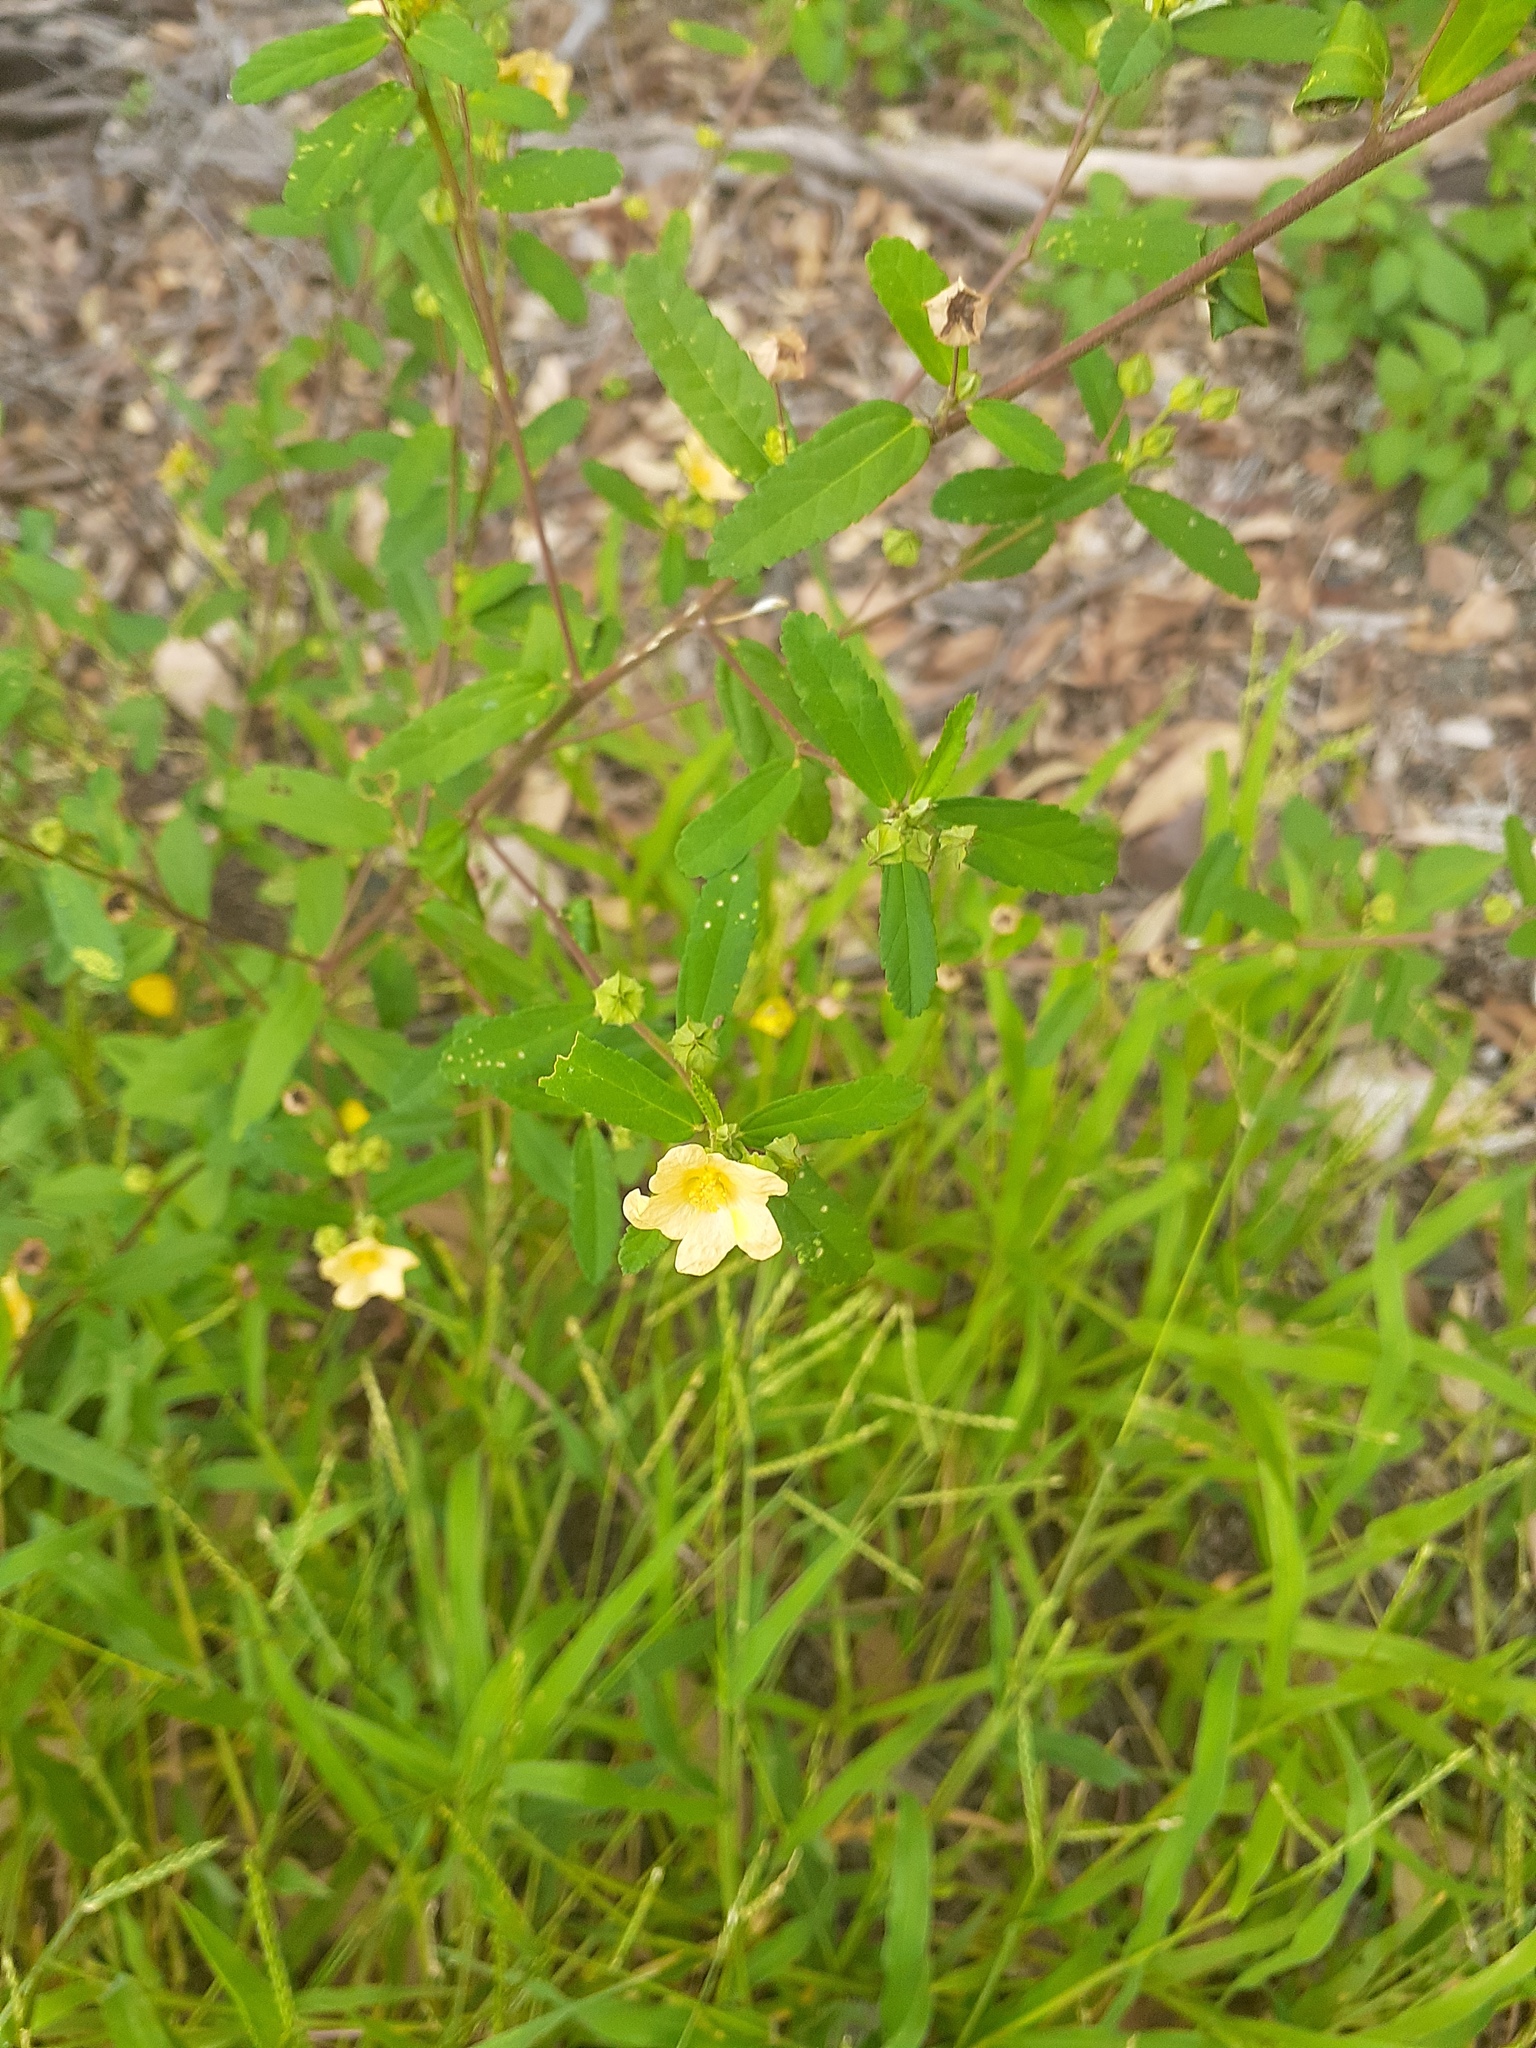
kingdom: Plantae
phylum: Tracheophyta
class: Magnoliopsida
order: Malvales
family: Malvaceae
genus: Sida
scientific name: Sida rhombifolia
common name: Queensland-hemp
